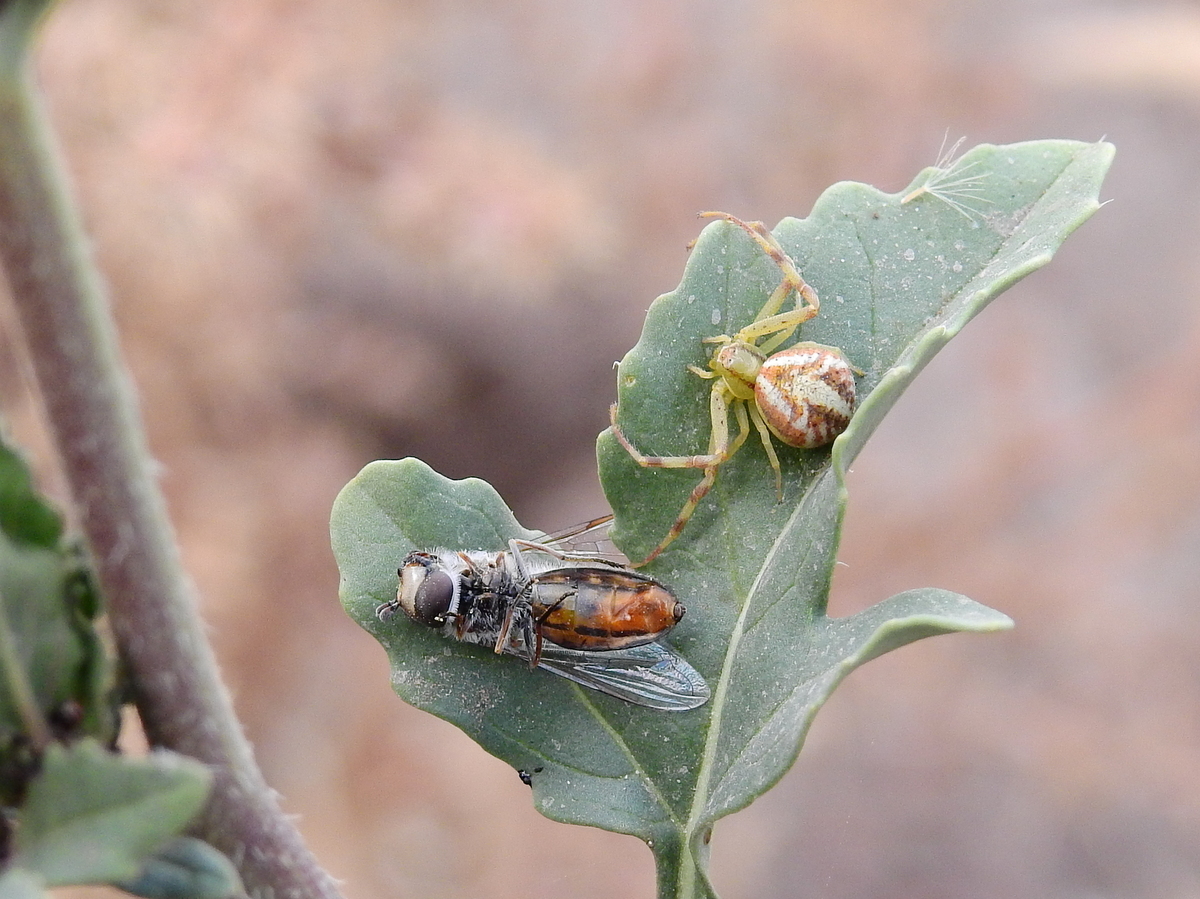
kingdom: Animalia
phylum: Arthropoda
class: Arachnida
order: Araneae
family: Thomisidae
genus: Misumenops
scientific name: Misumenops
